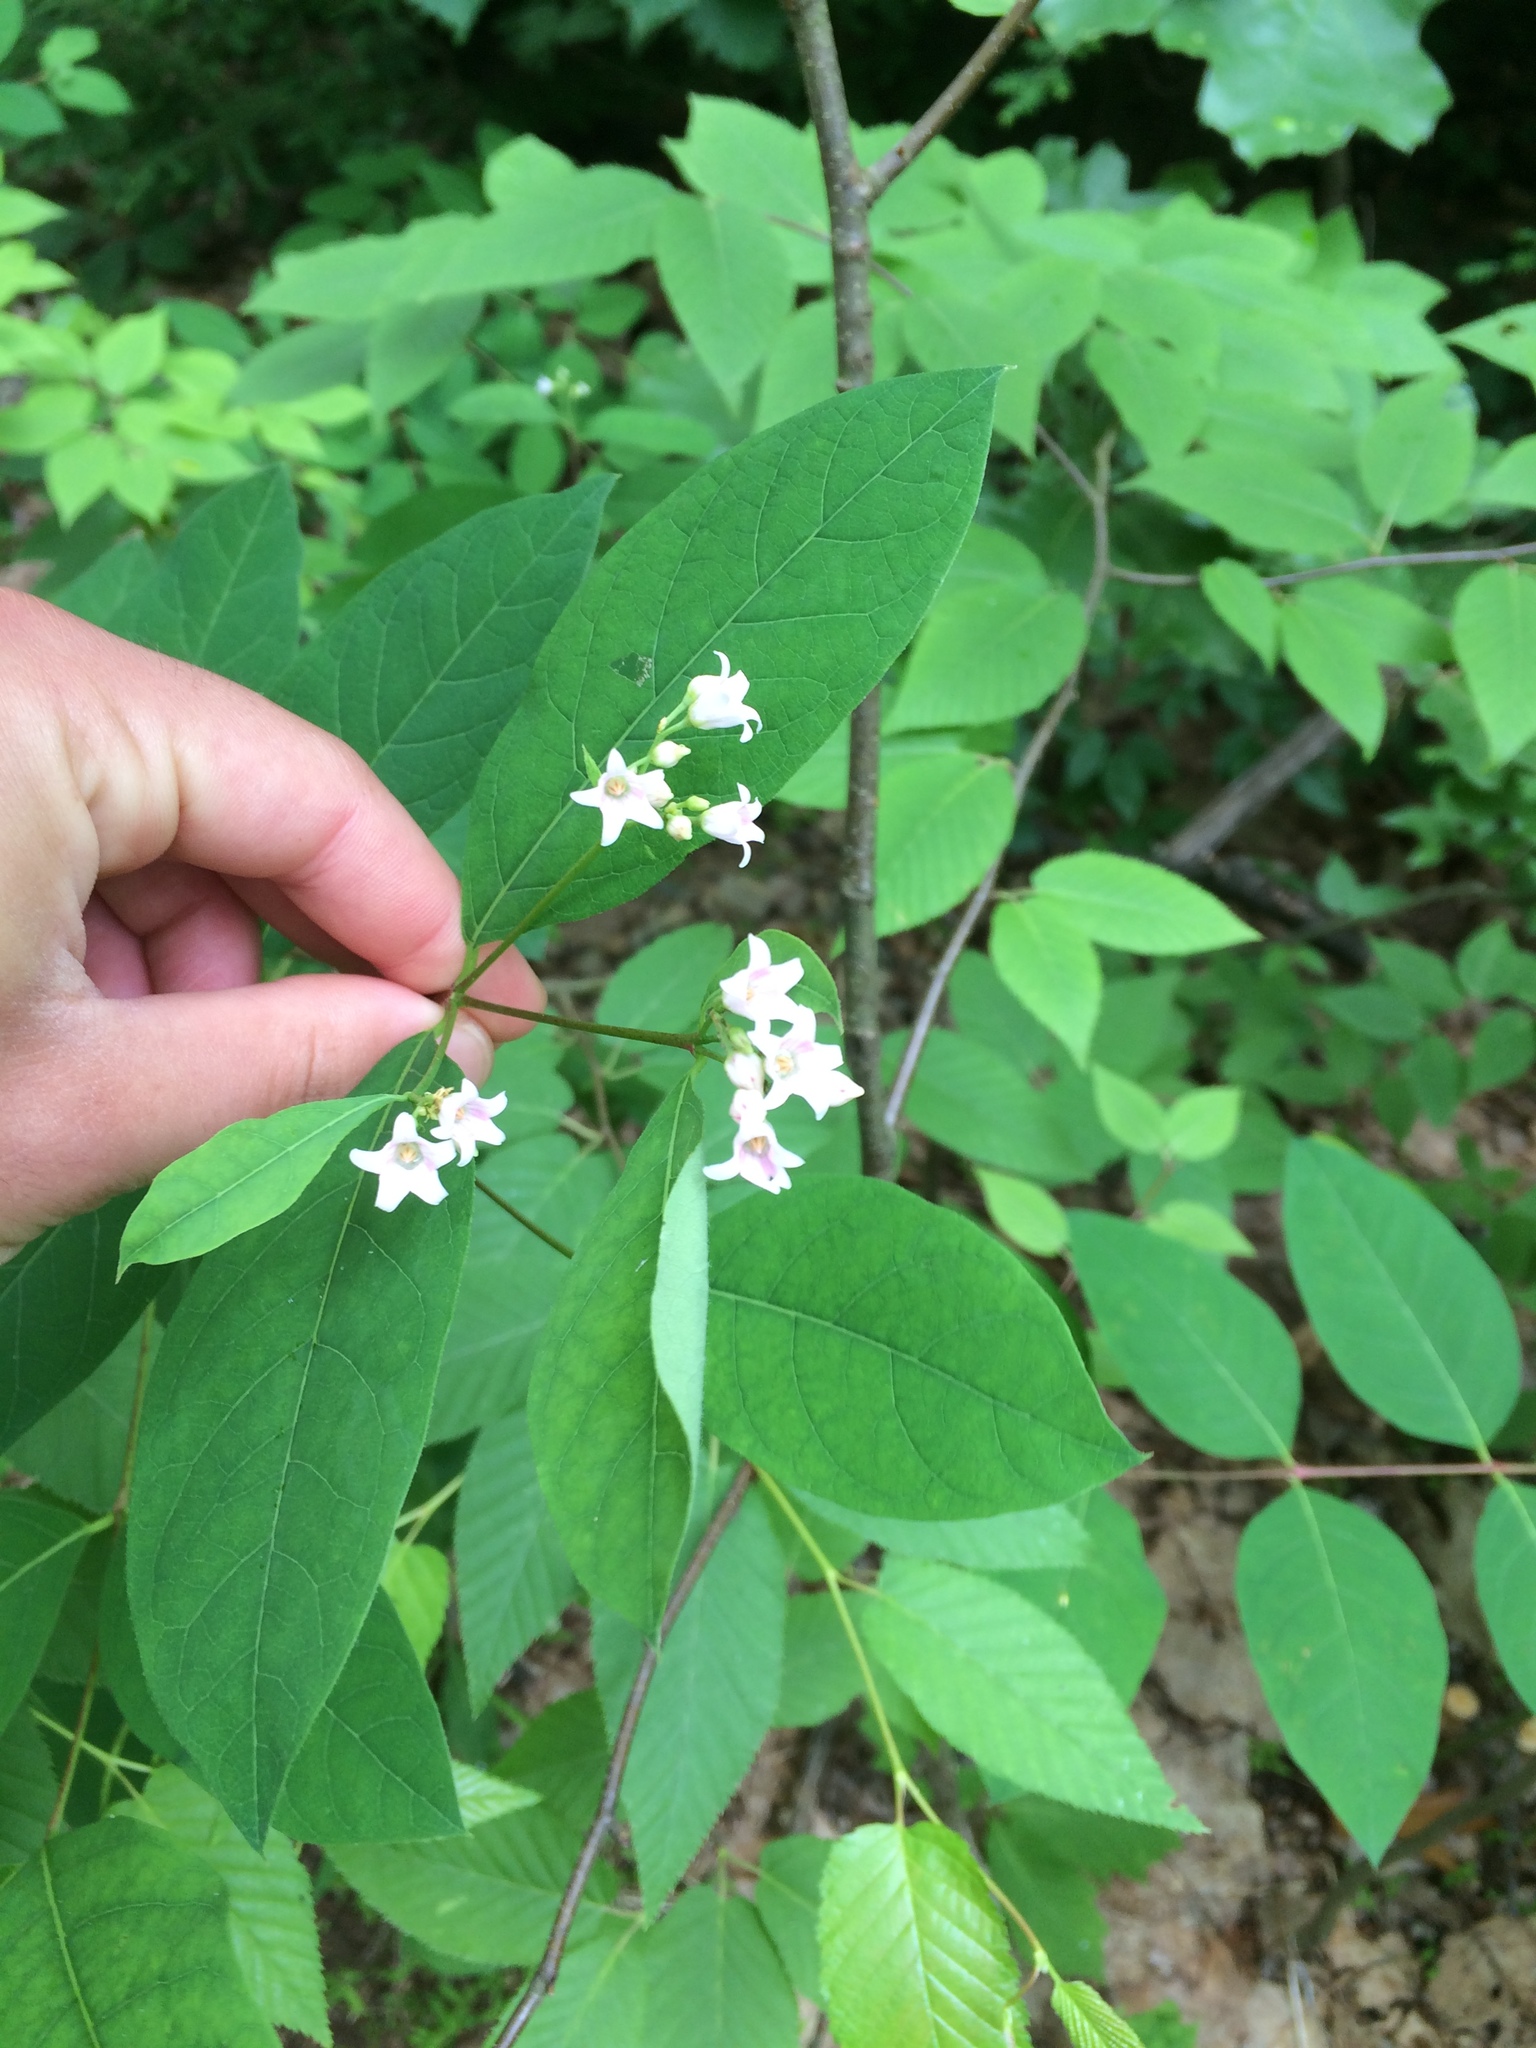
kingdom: Plantae
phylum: Tracheophyta
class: Magnoliopsida
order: Gentianales
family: Apocynaceae
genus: Apocynum
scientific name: Apocynum androsaemifolium
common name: Spreading dogbane
